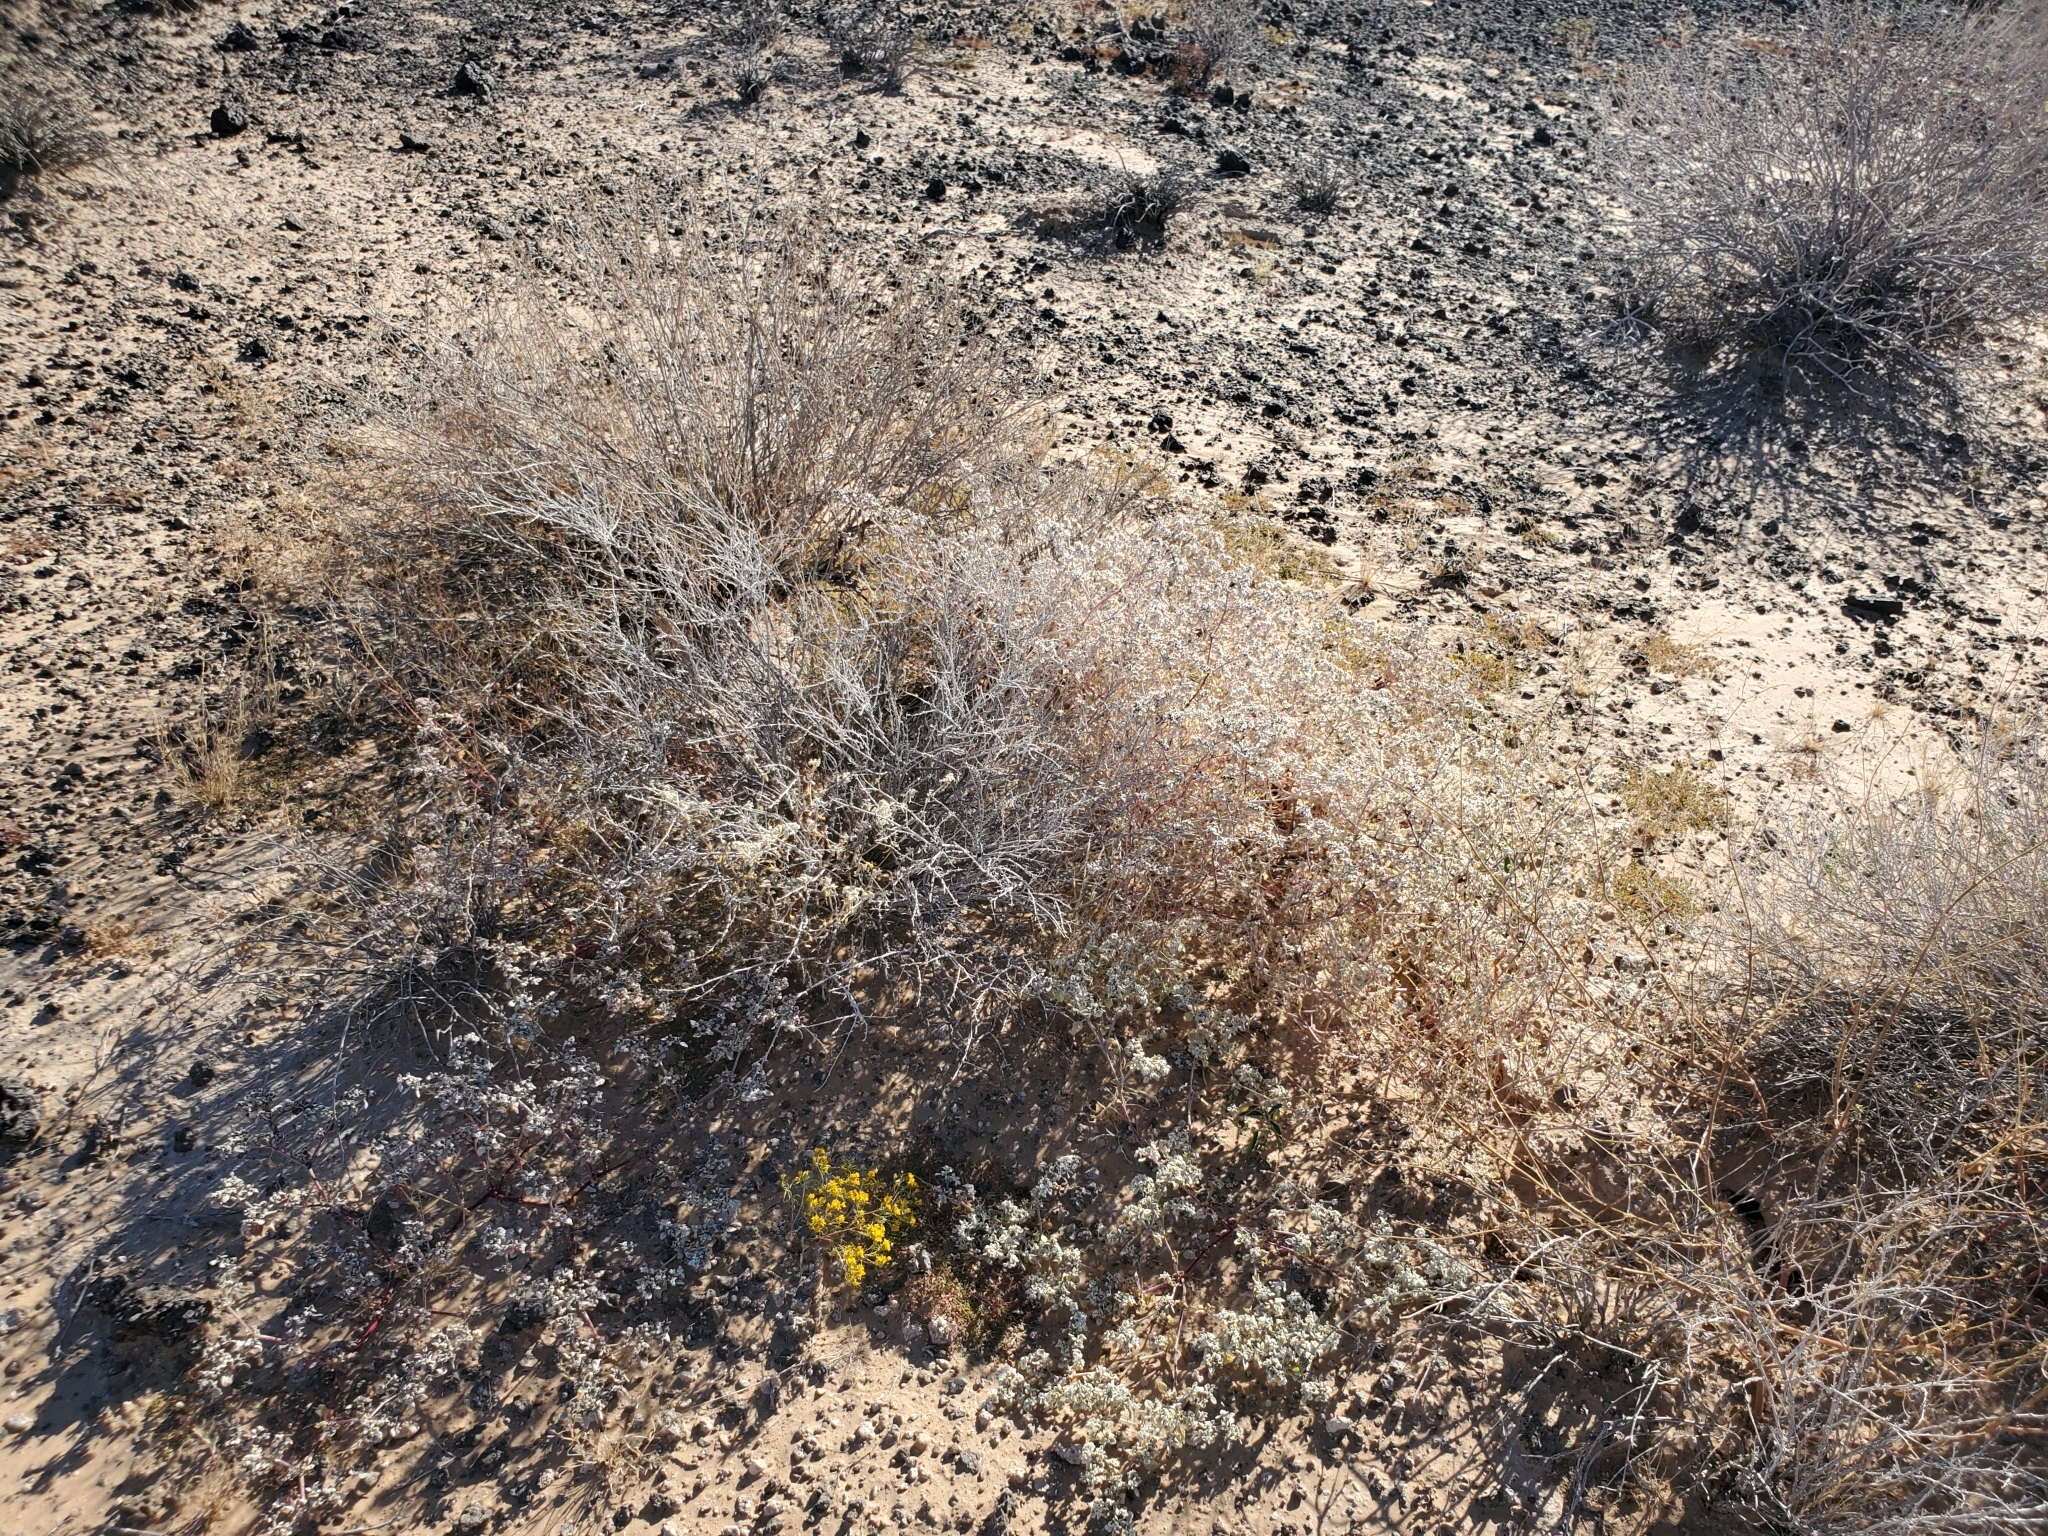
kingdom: Plantae
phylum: Tracheophyta
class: Magnoliopsida
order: Asterales
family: Asteraceae
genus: Pectis
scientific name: Pectis papposa
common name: Many-bristle chinchweed
